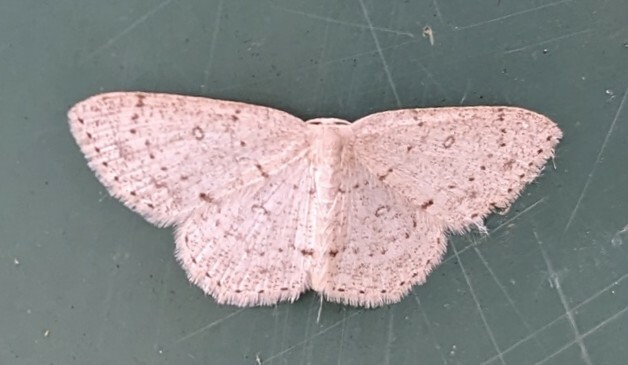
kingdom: Animalia
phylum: Arthropoda
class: Insecta
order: Lepidoptera
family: Geometridae
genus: Cyclophora
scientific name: Cyclophora pendulinaria
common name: Sweet fern geometer
